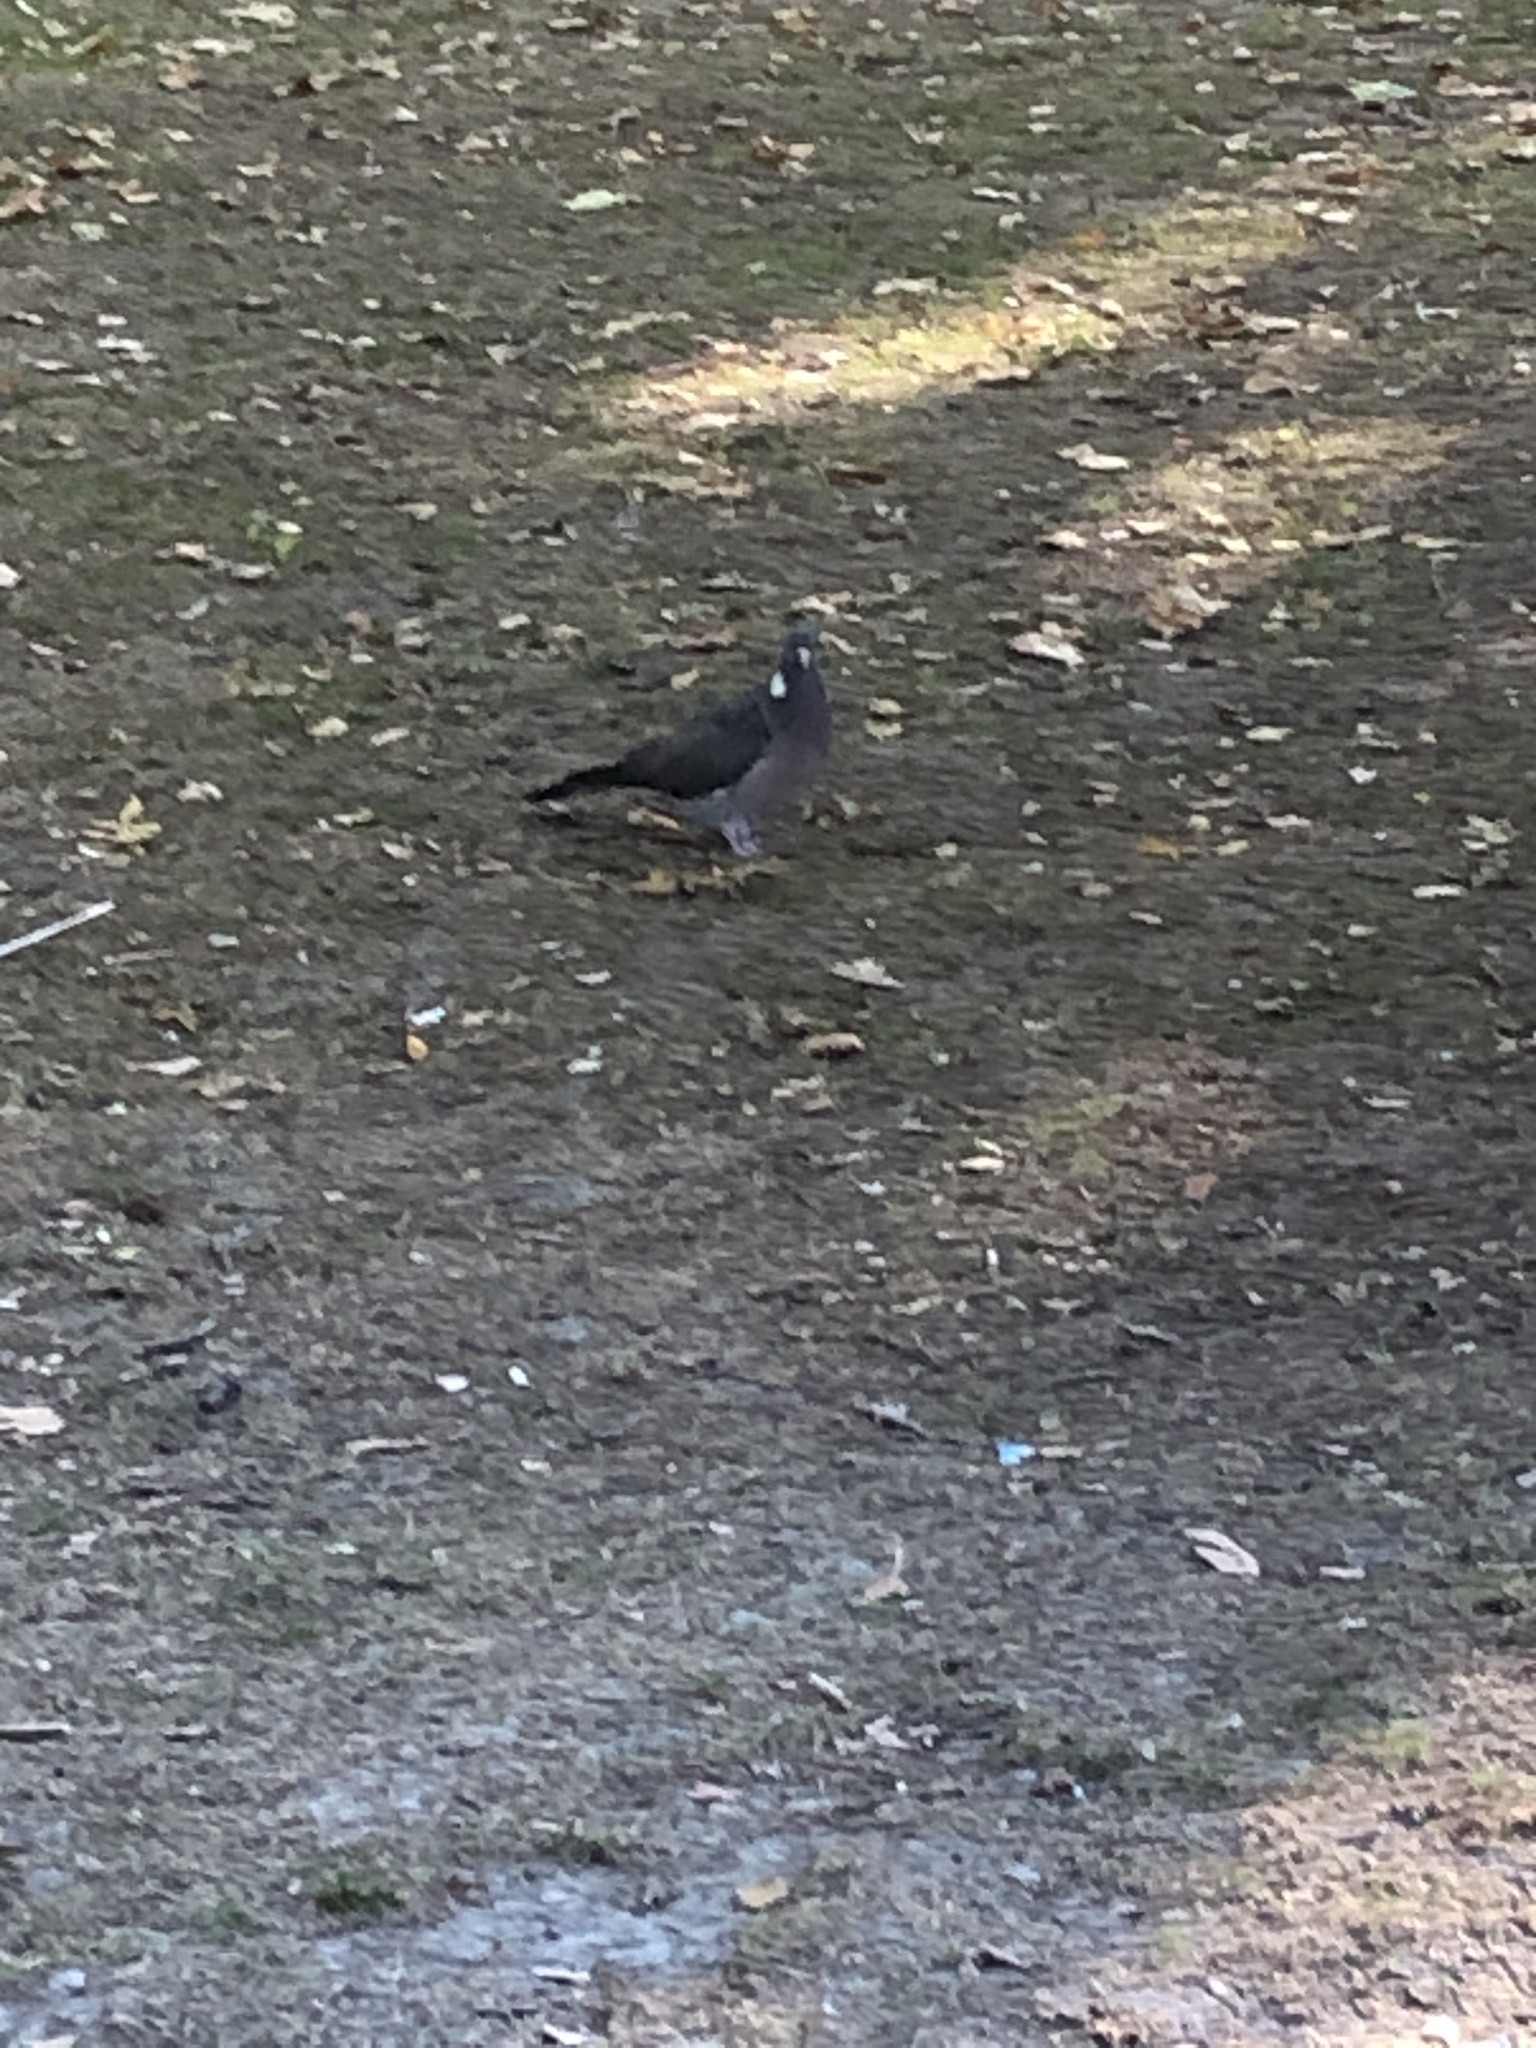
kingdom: Animalia
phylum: Chordata
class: Aves
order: Columbiformes
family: Columbidae
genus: Columba
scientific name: Columba palumbus
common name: Common wood pigeon
